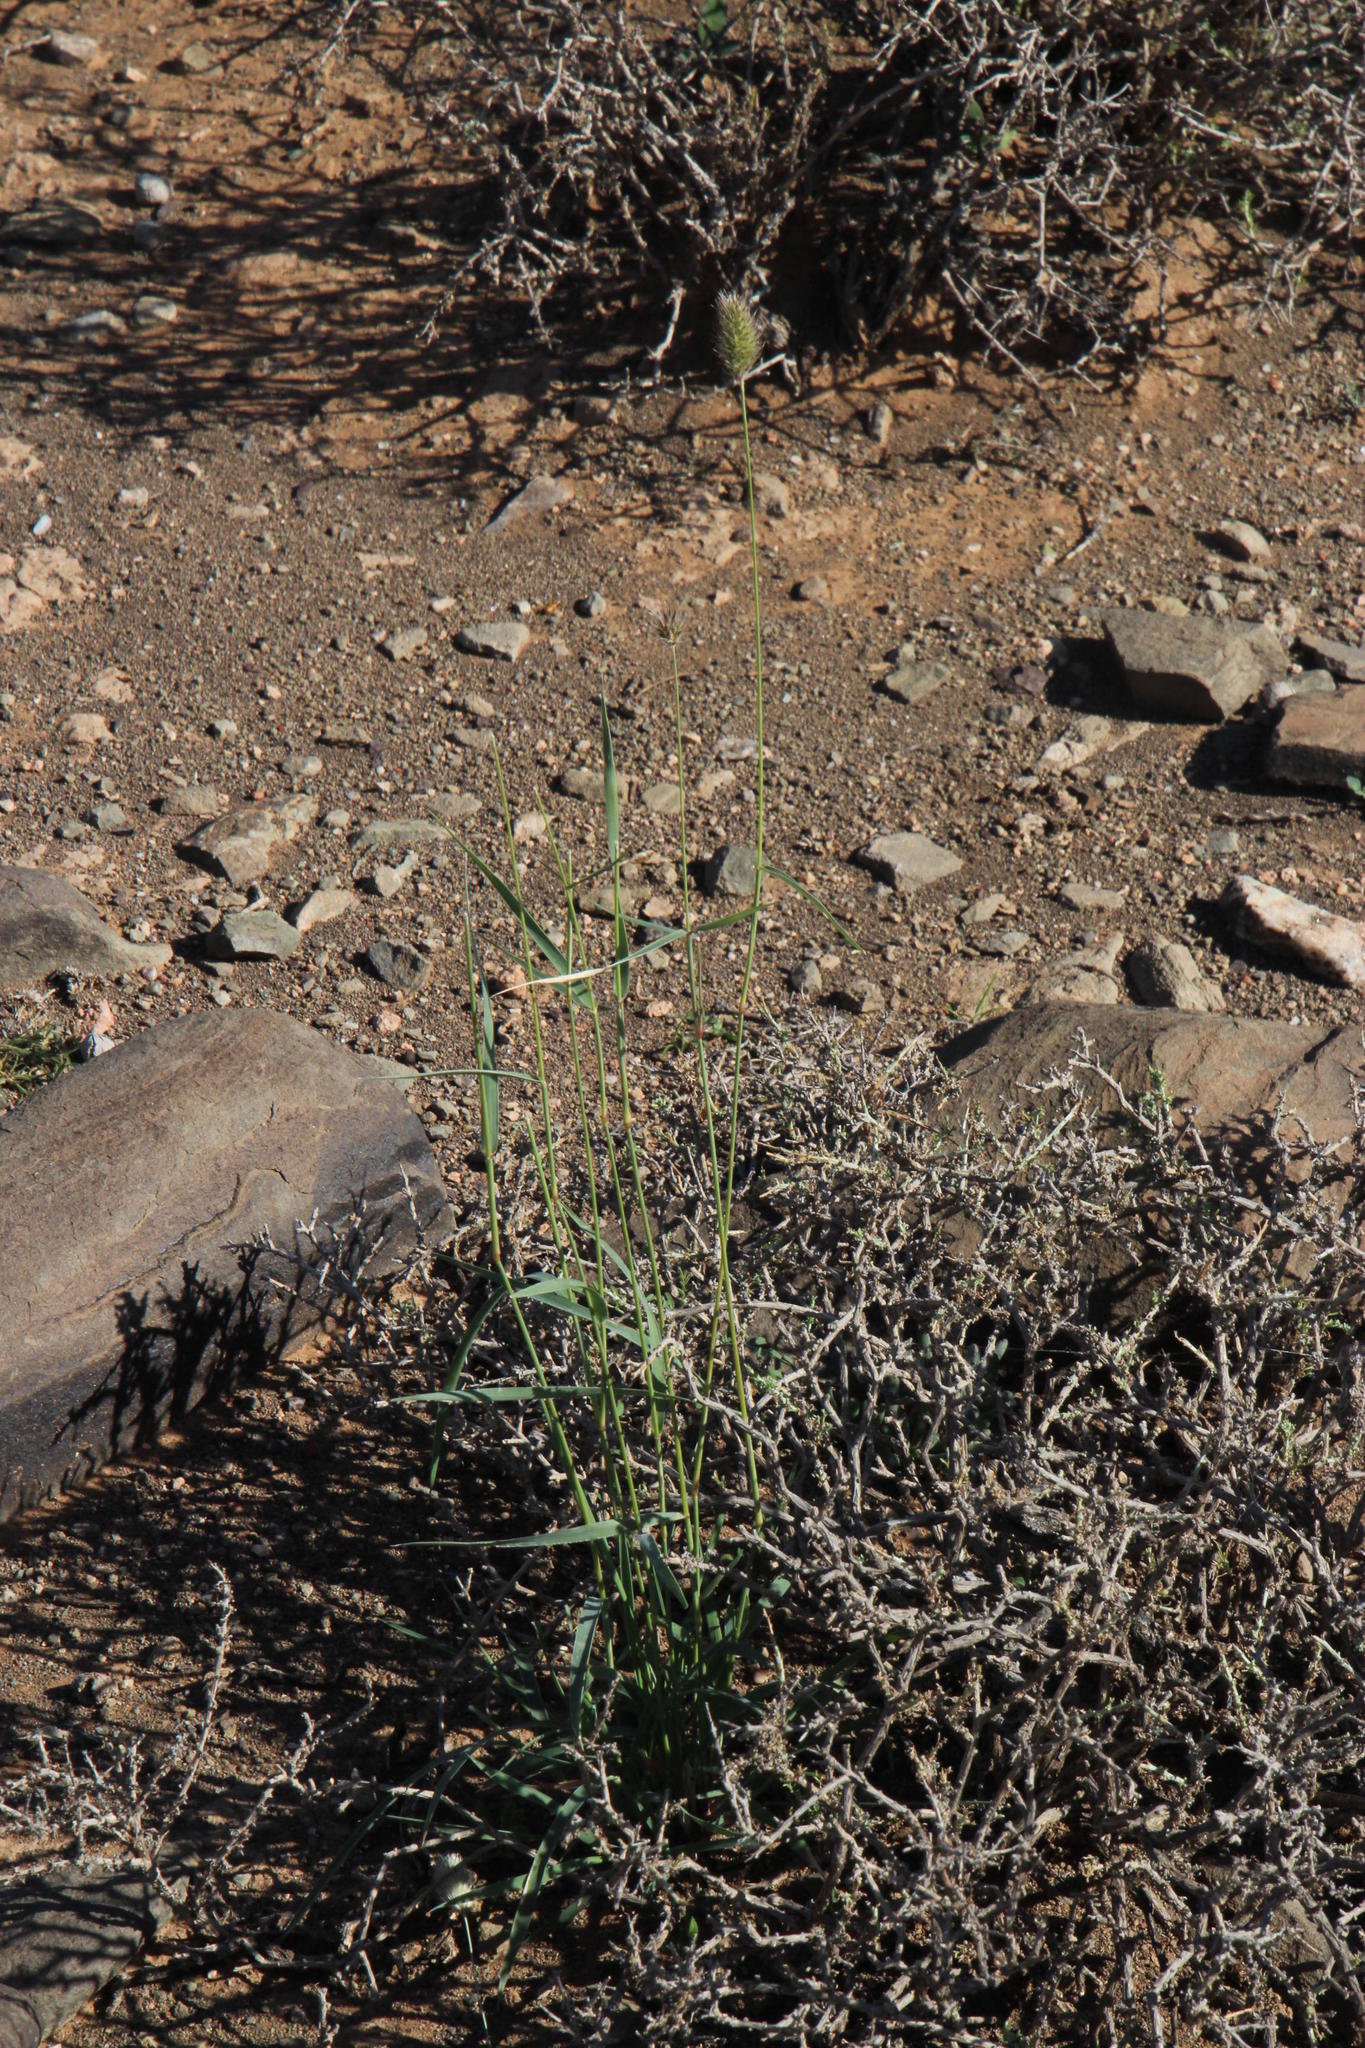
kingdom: Plantae
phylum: Tracheophyta
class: Liliopsida
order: Poales
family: Poaceae
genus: Fingerhuthia
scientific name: Fingerhuthia africana
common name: Zulu fescue
